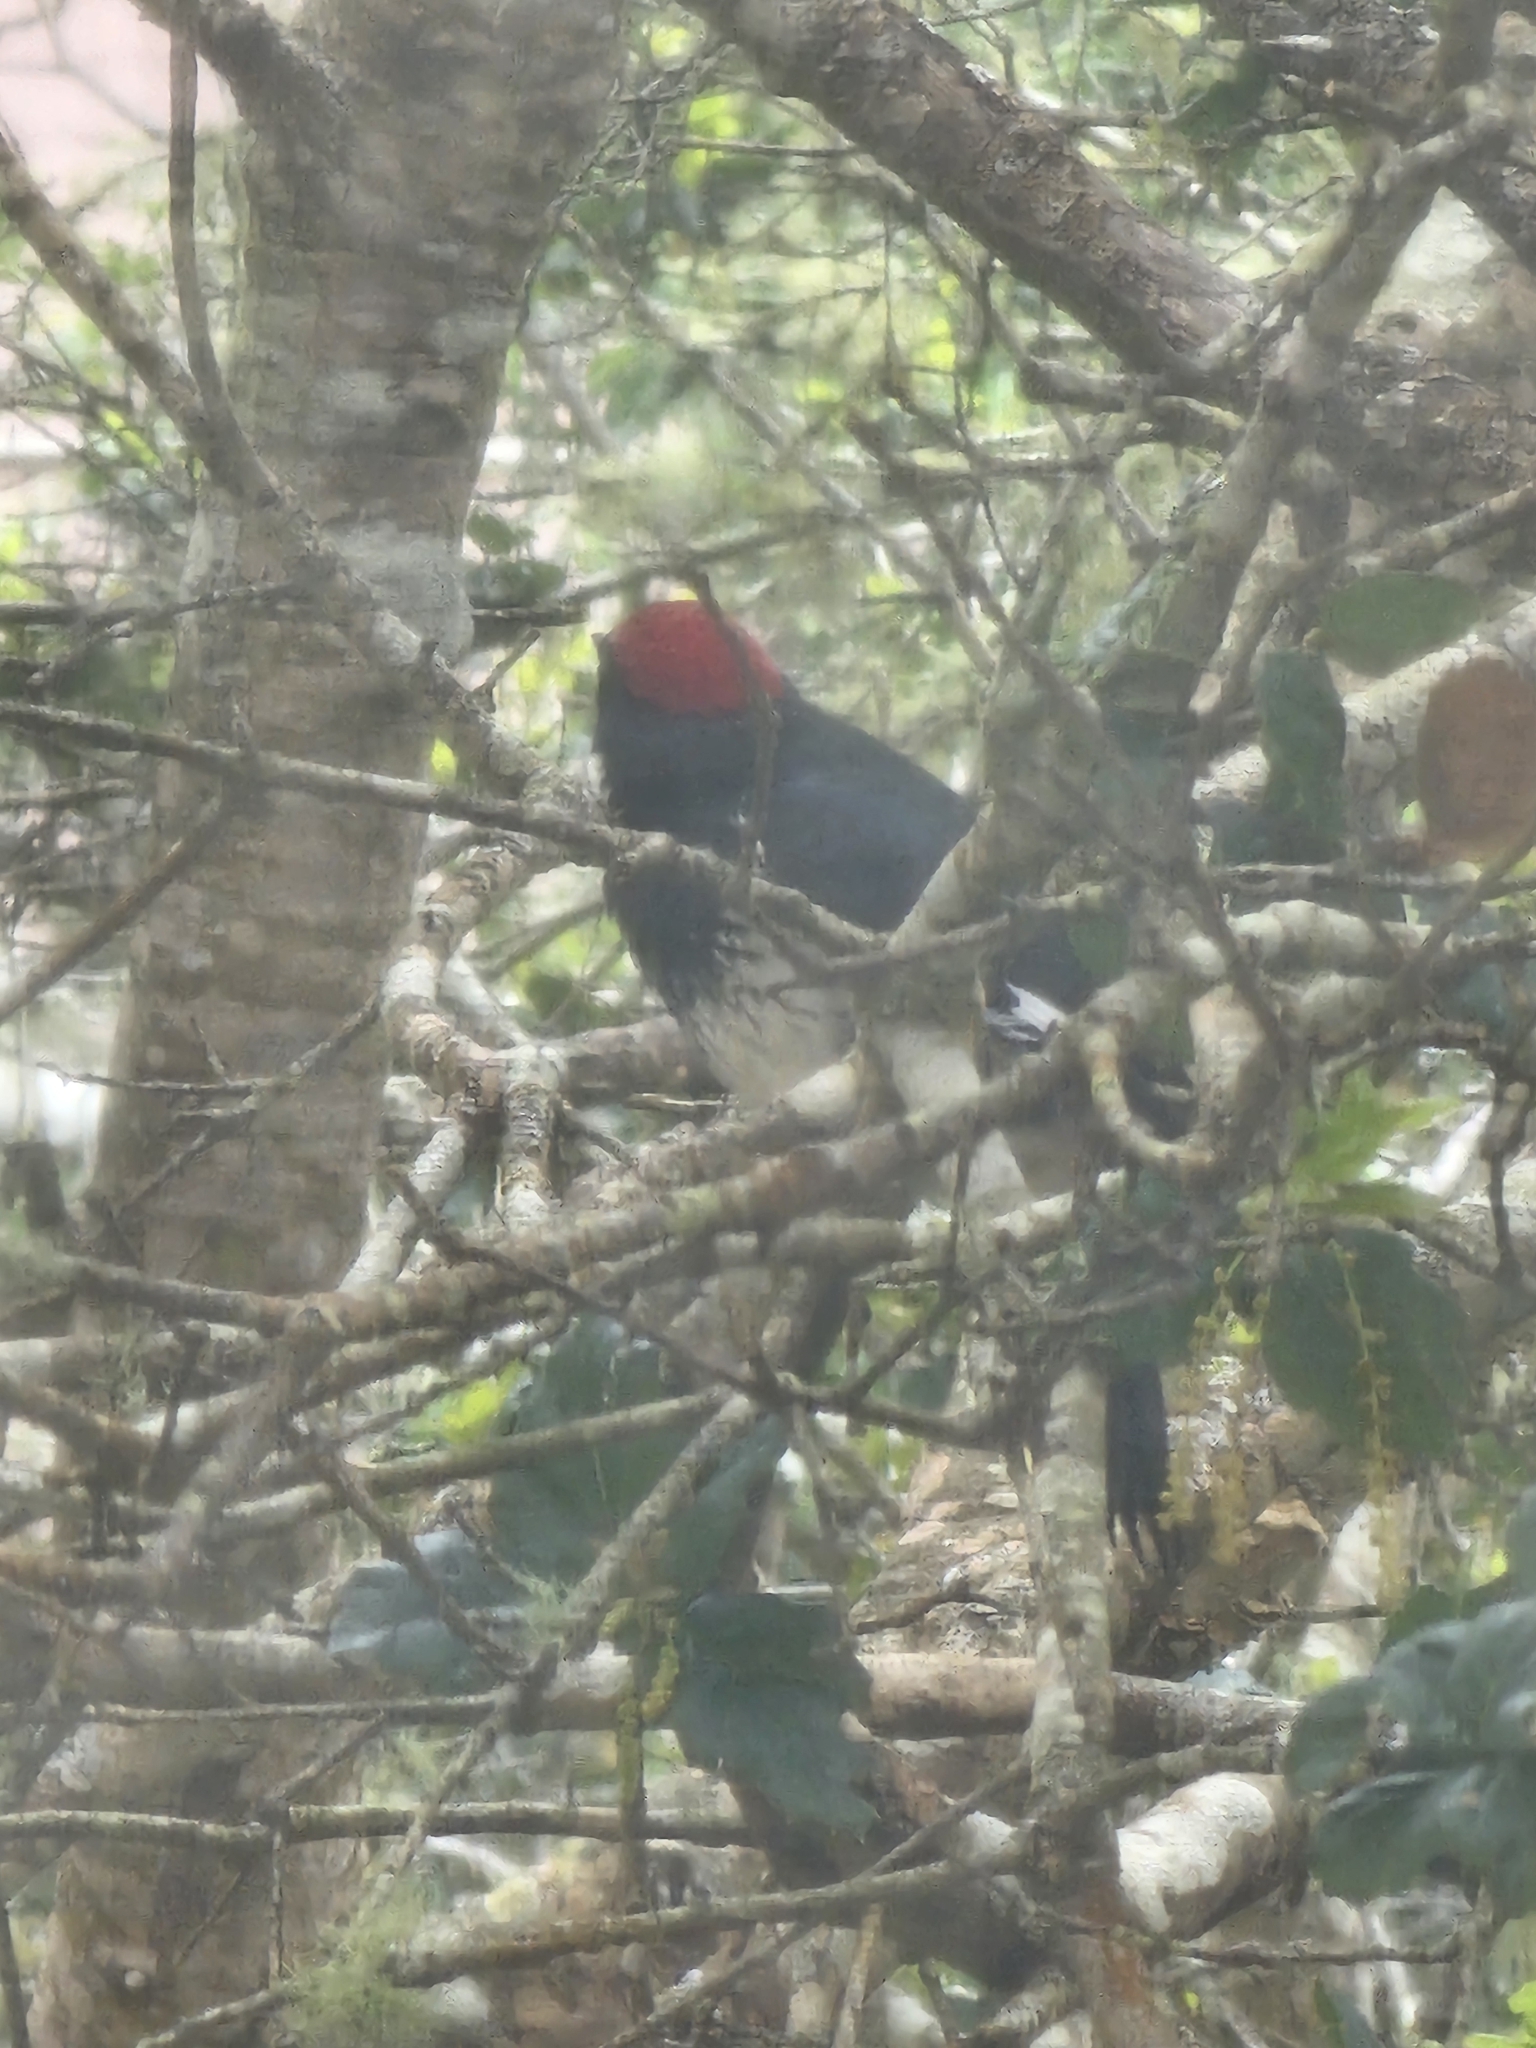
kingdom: Animalia
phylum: Chordata
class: Aves
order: Piciformes
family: Picidae
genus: Melanerpes
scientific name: Melanerpes formicivorus
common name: Acorn woodpecker
